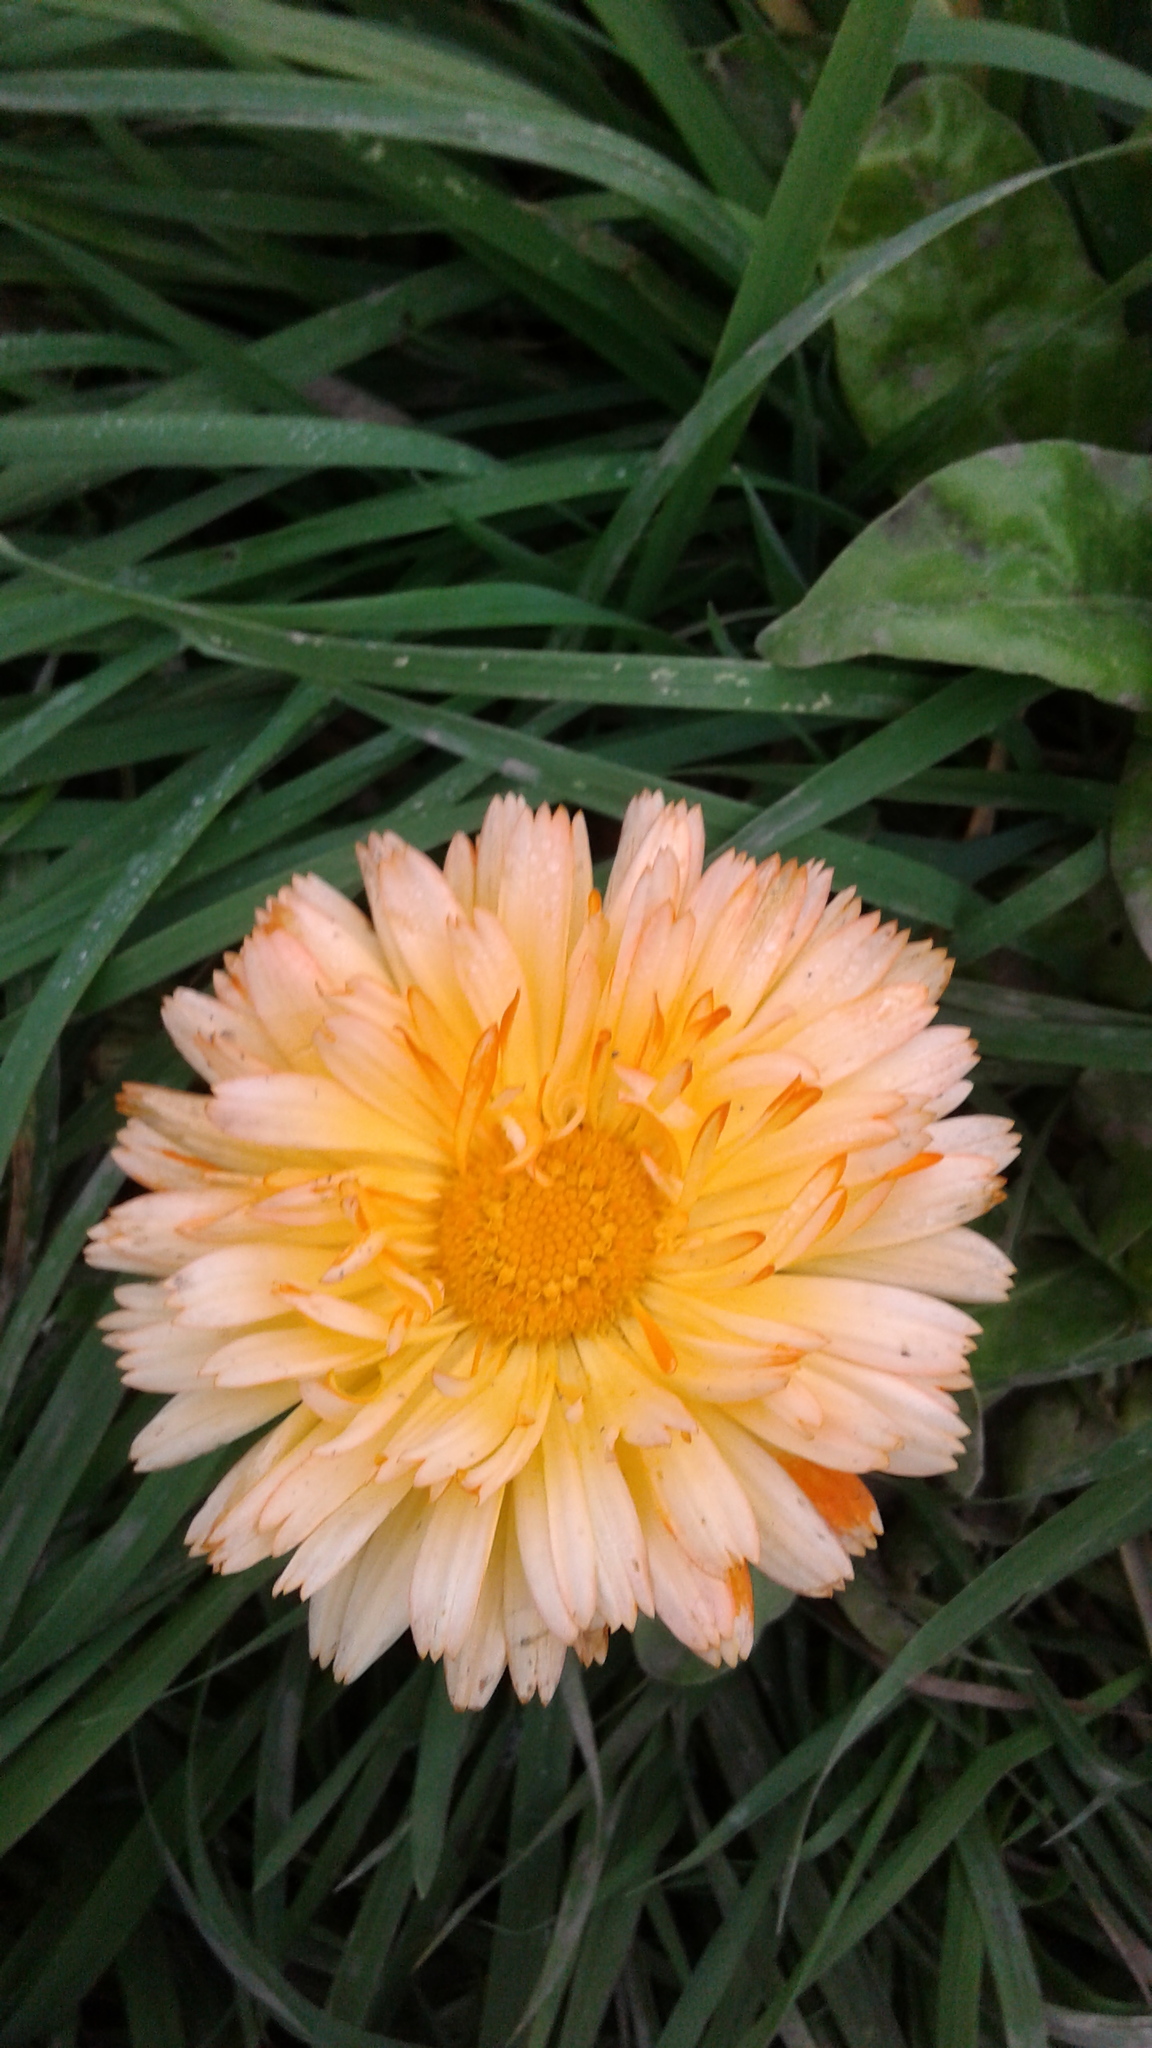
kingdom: Plantae
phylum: Tracheophyta
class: Magnoliopsida
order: Asterales
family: Asteraceae
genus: Calendula
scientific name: Calendula officinalis
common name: Pot marigold
